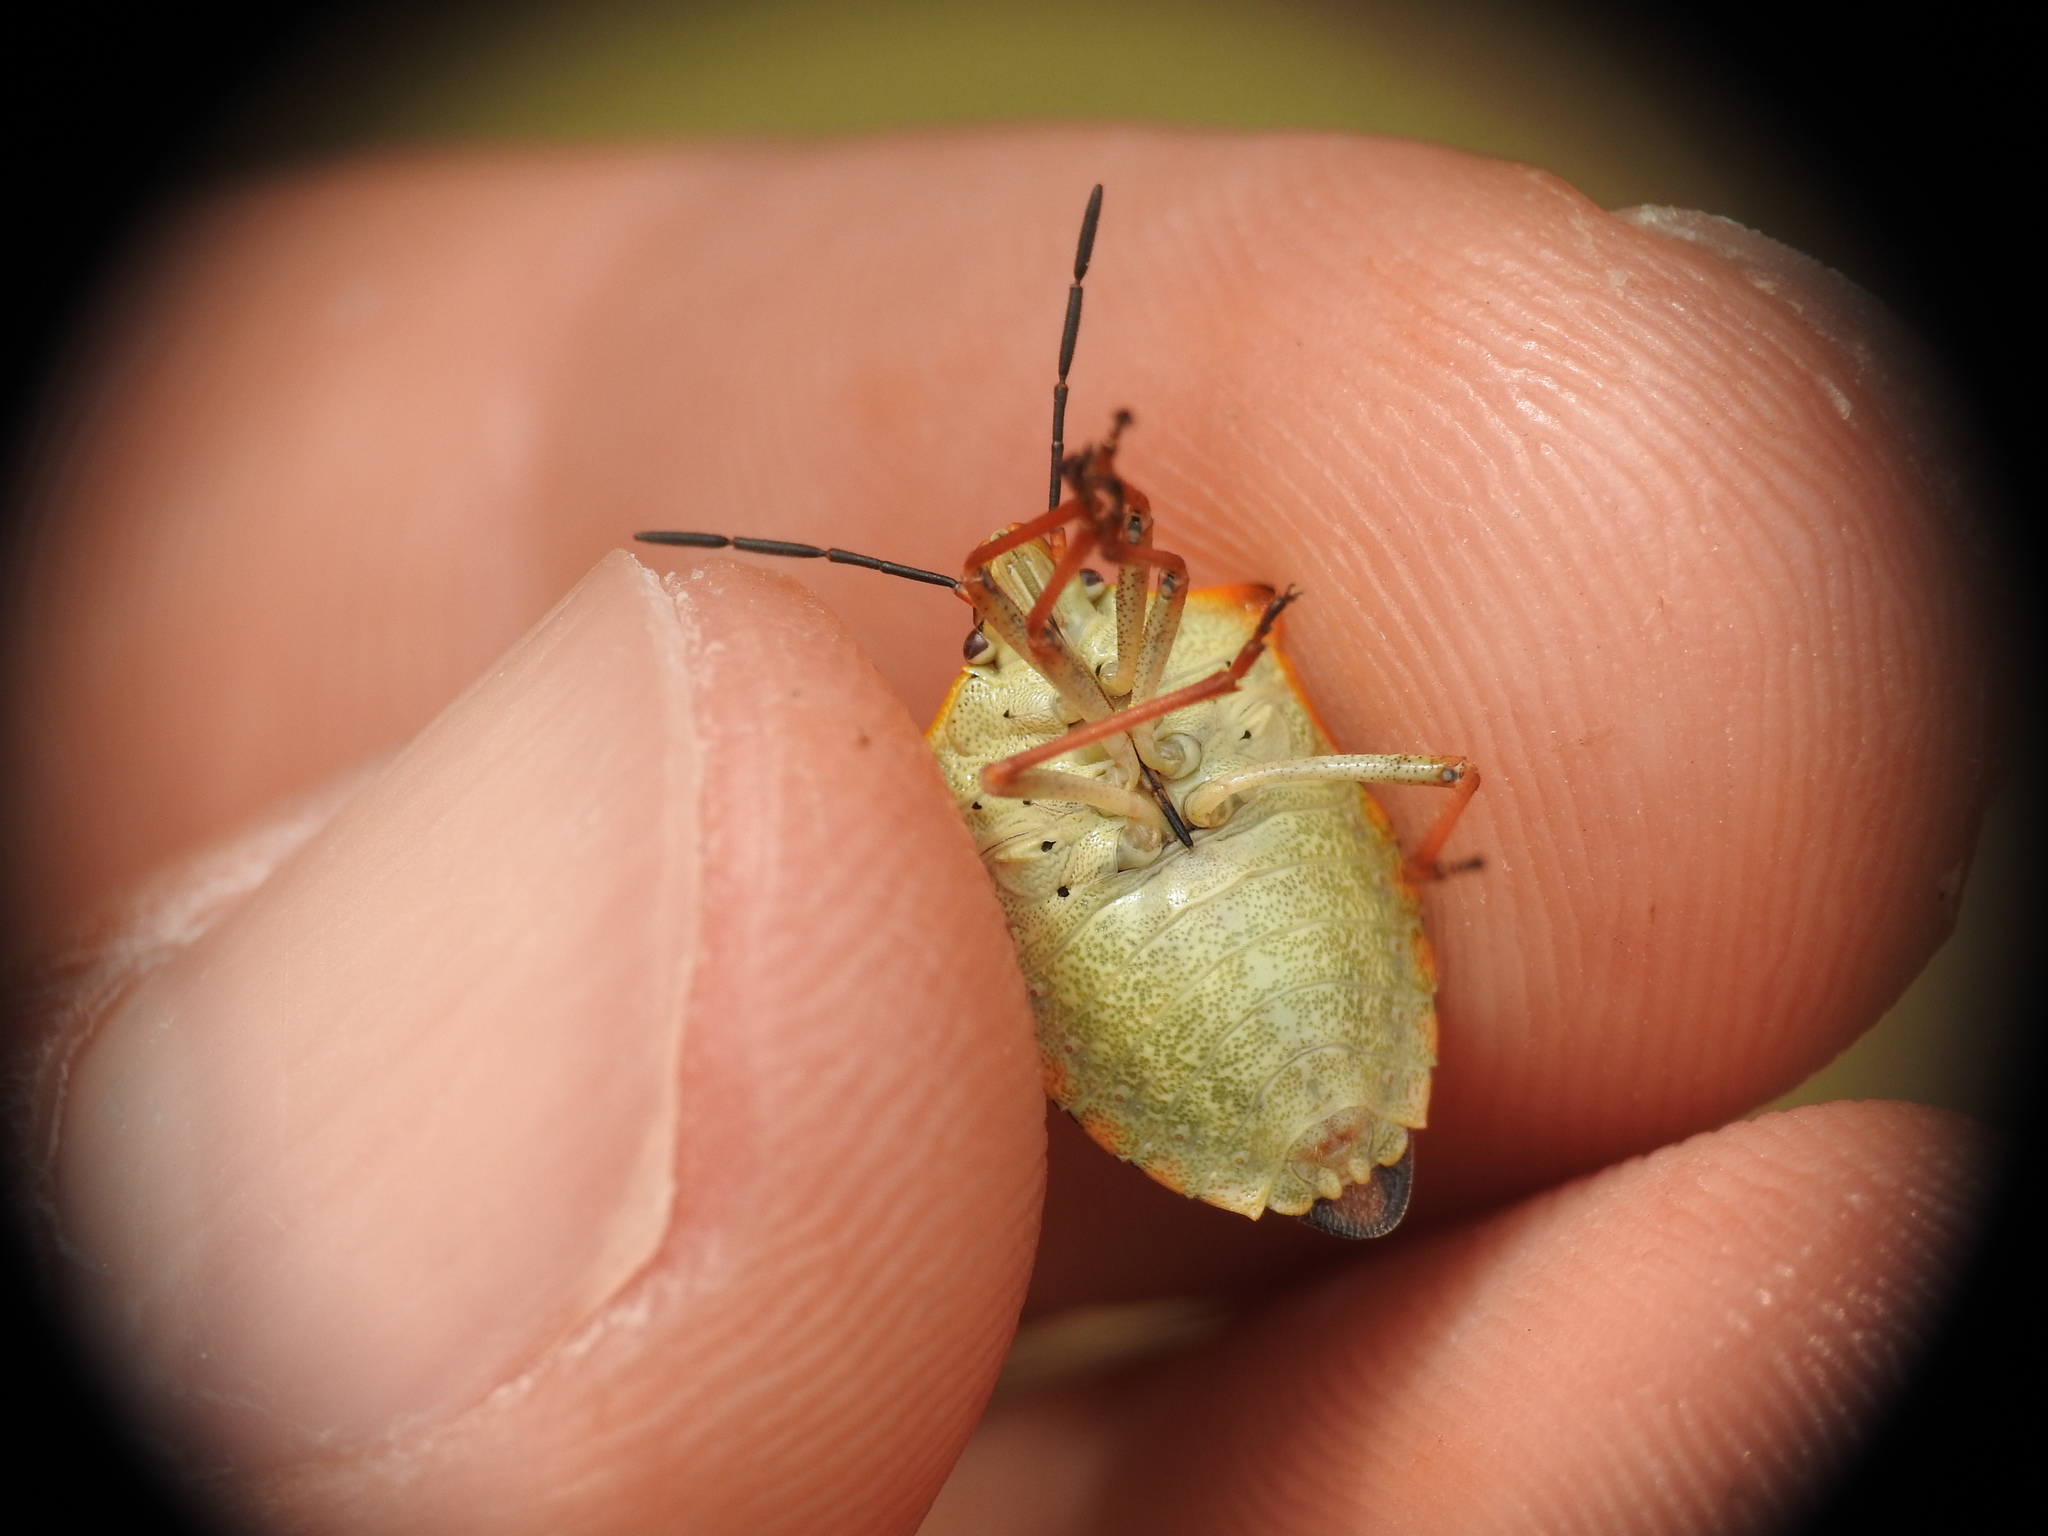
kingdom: Animalia
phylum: Arthropoda
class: Insecta
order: Hemiptera
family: Pentatomidae
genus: Carpocoris
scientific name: Carpocoris mediterraneus
